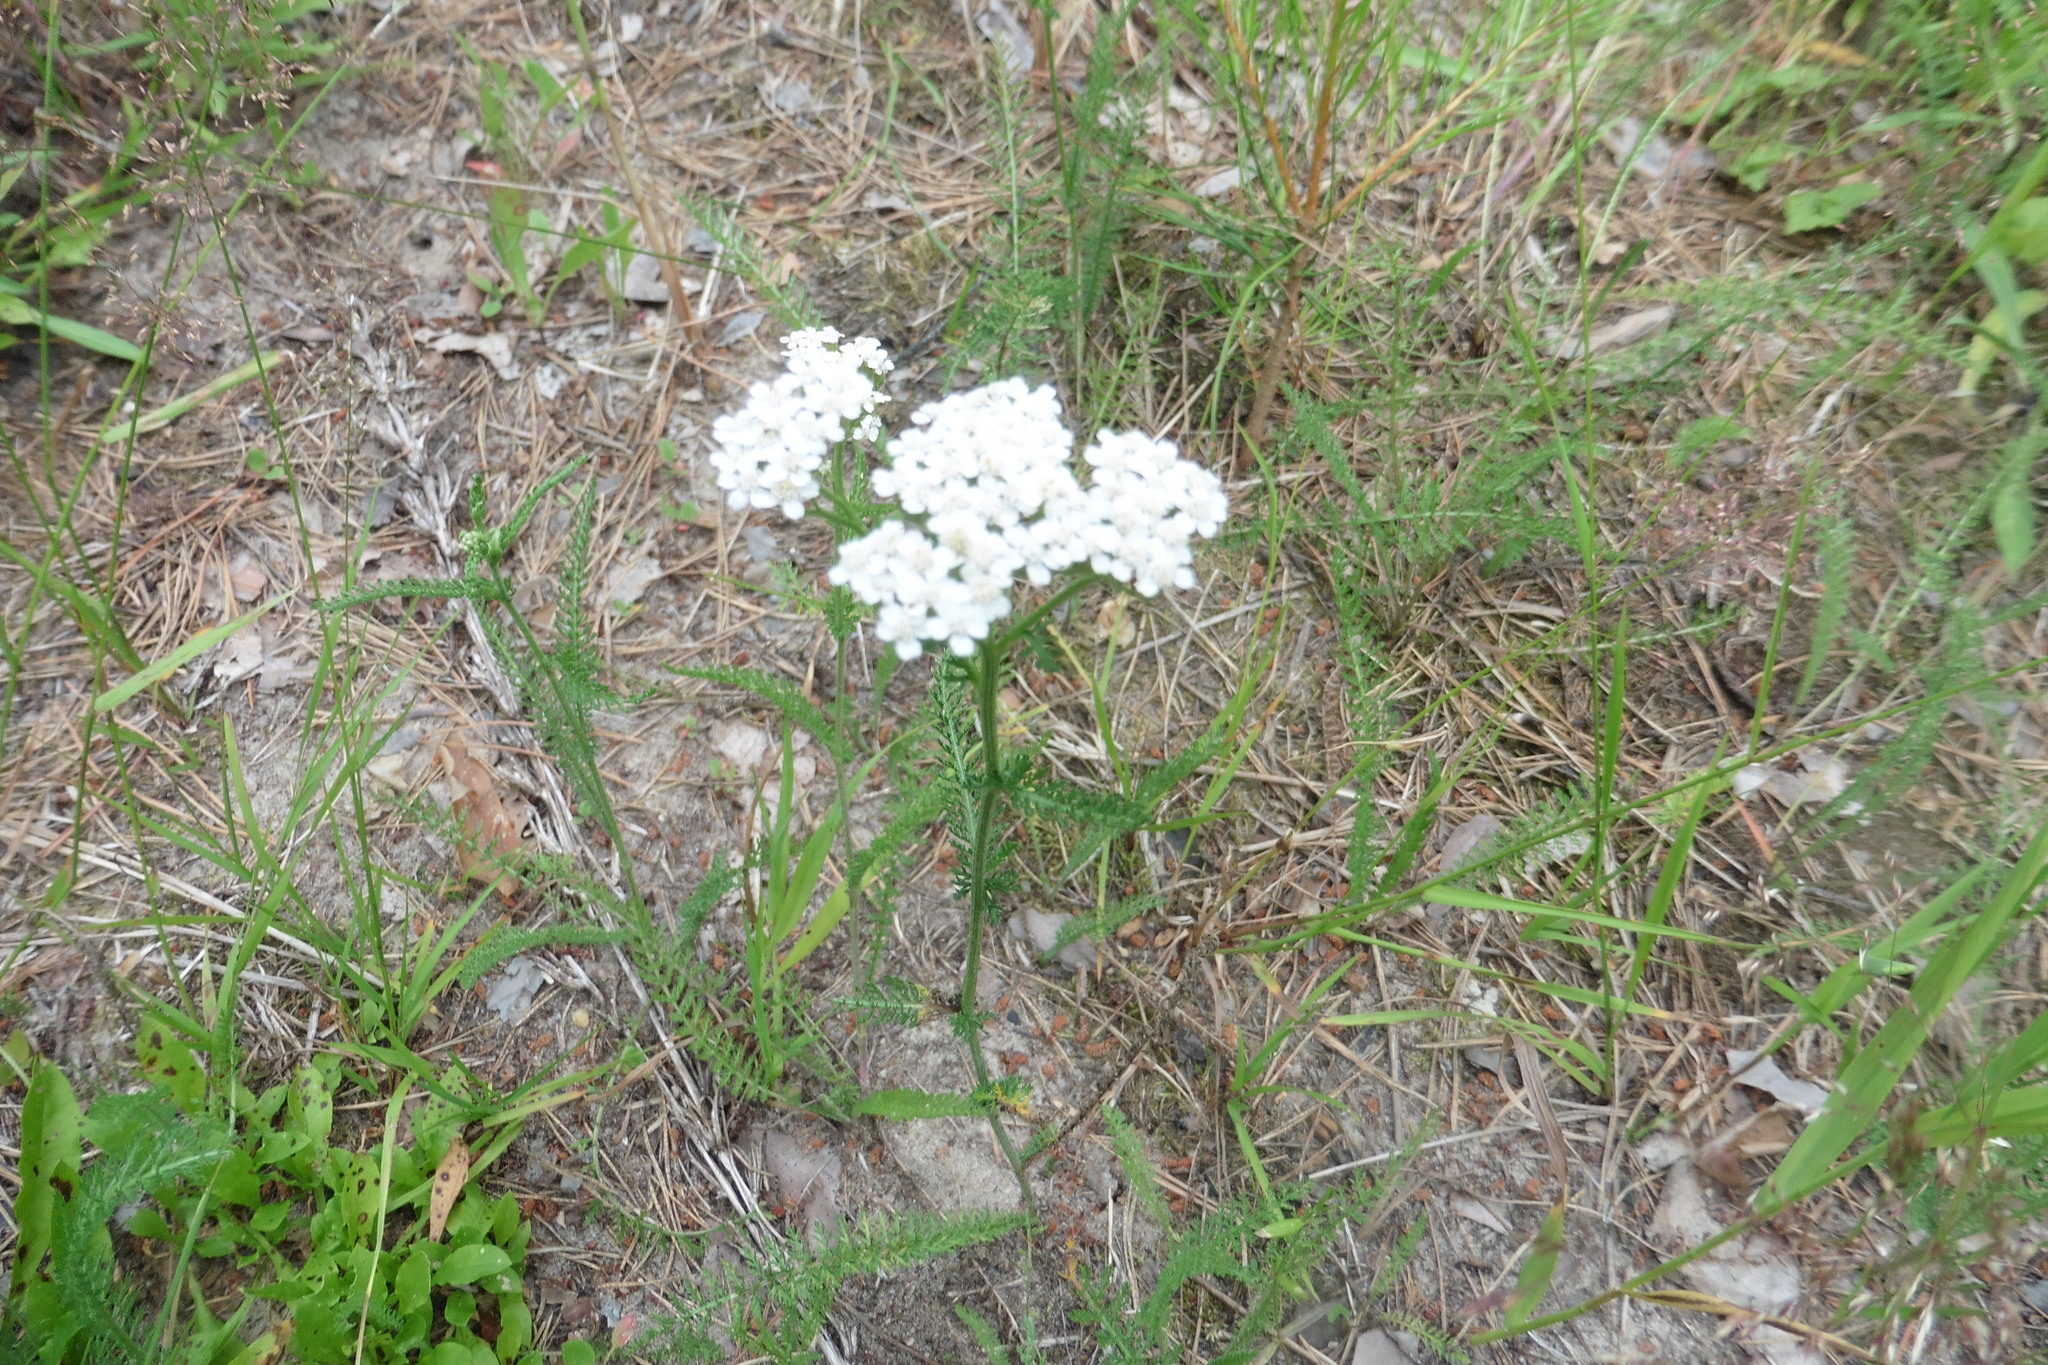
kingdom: Plantae
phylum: Tracheophyta
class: Magnoliopsida
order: Asterales
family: Asteraceae
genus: Achillea
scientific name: Achillea millefolium
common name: Yarrow
